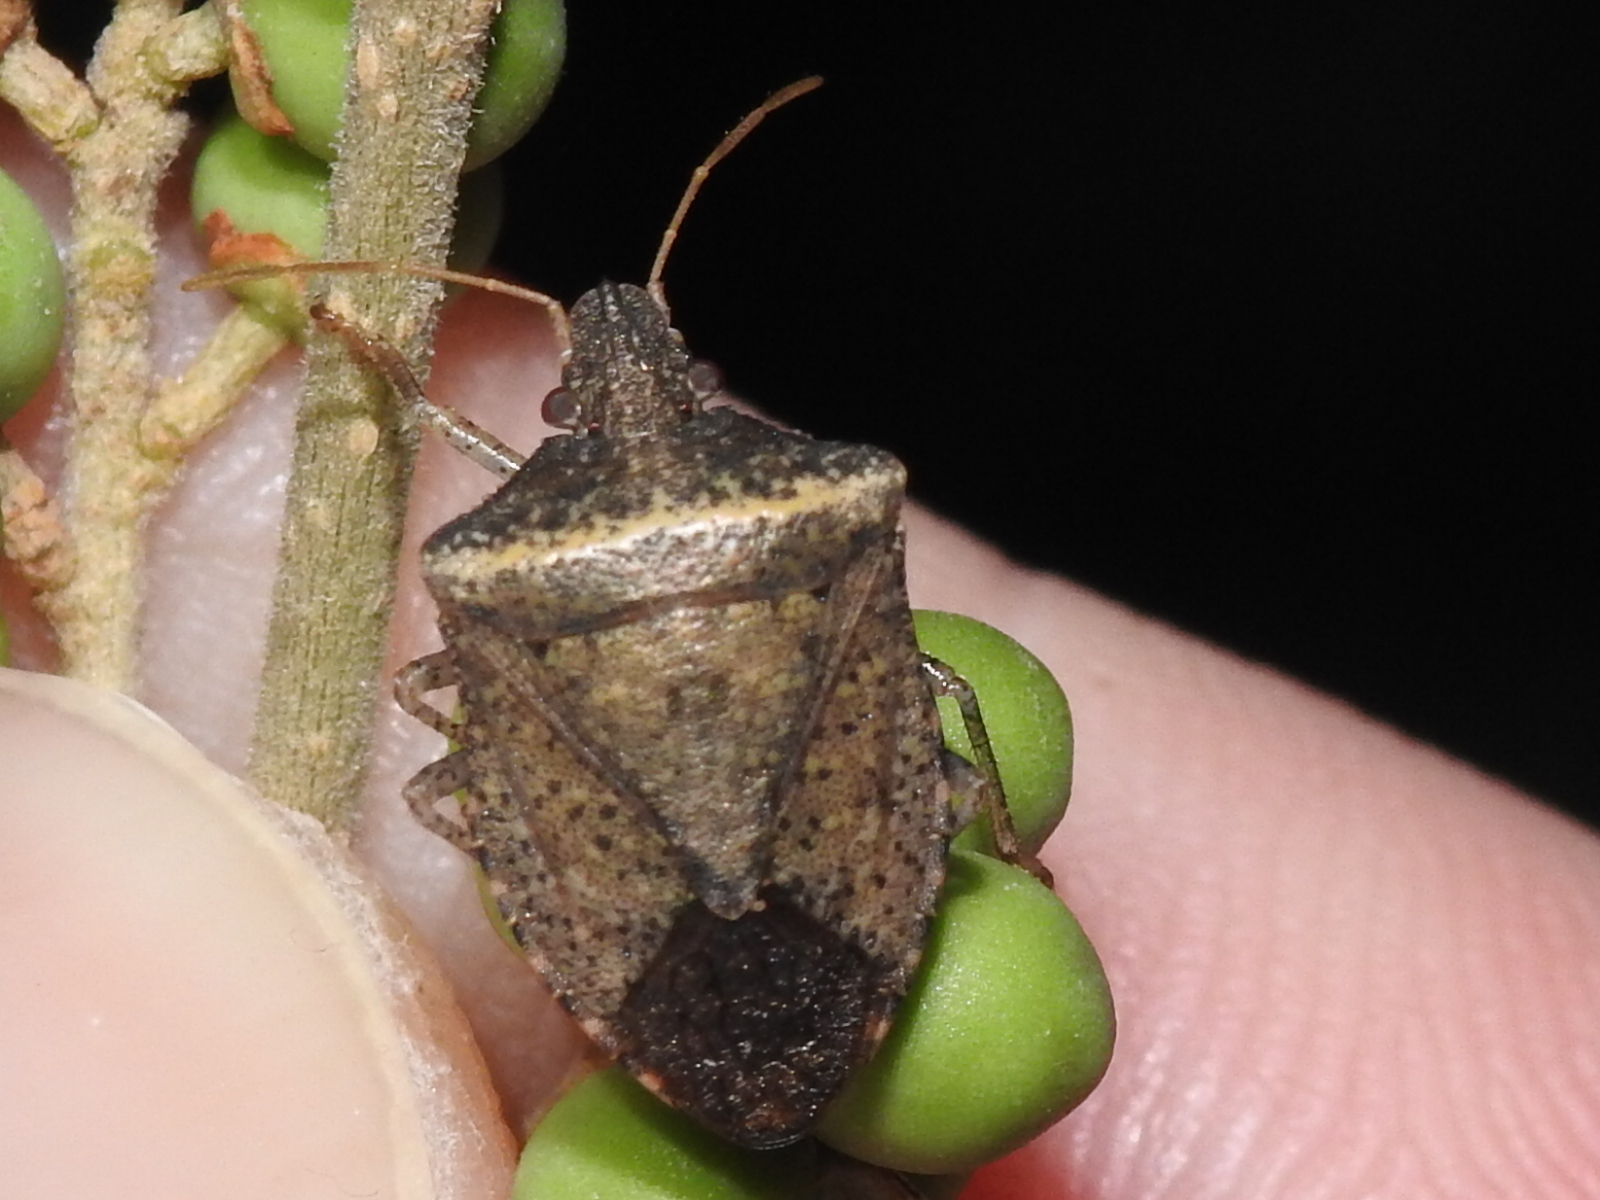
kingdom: Animalia
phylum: Arthropoda
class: Insecta
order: Hemiptera
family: Pentatomidae
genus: Euschistus
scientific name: Euschistus obscurus
